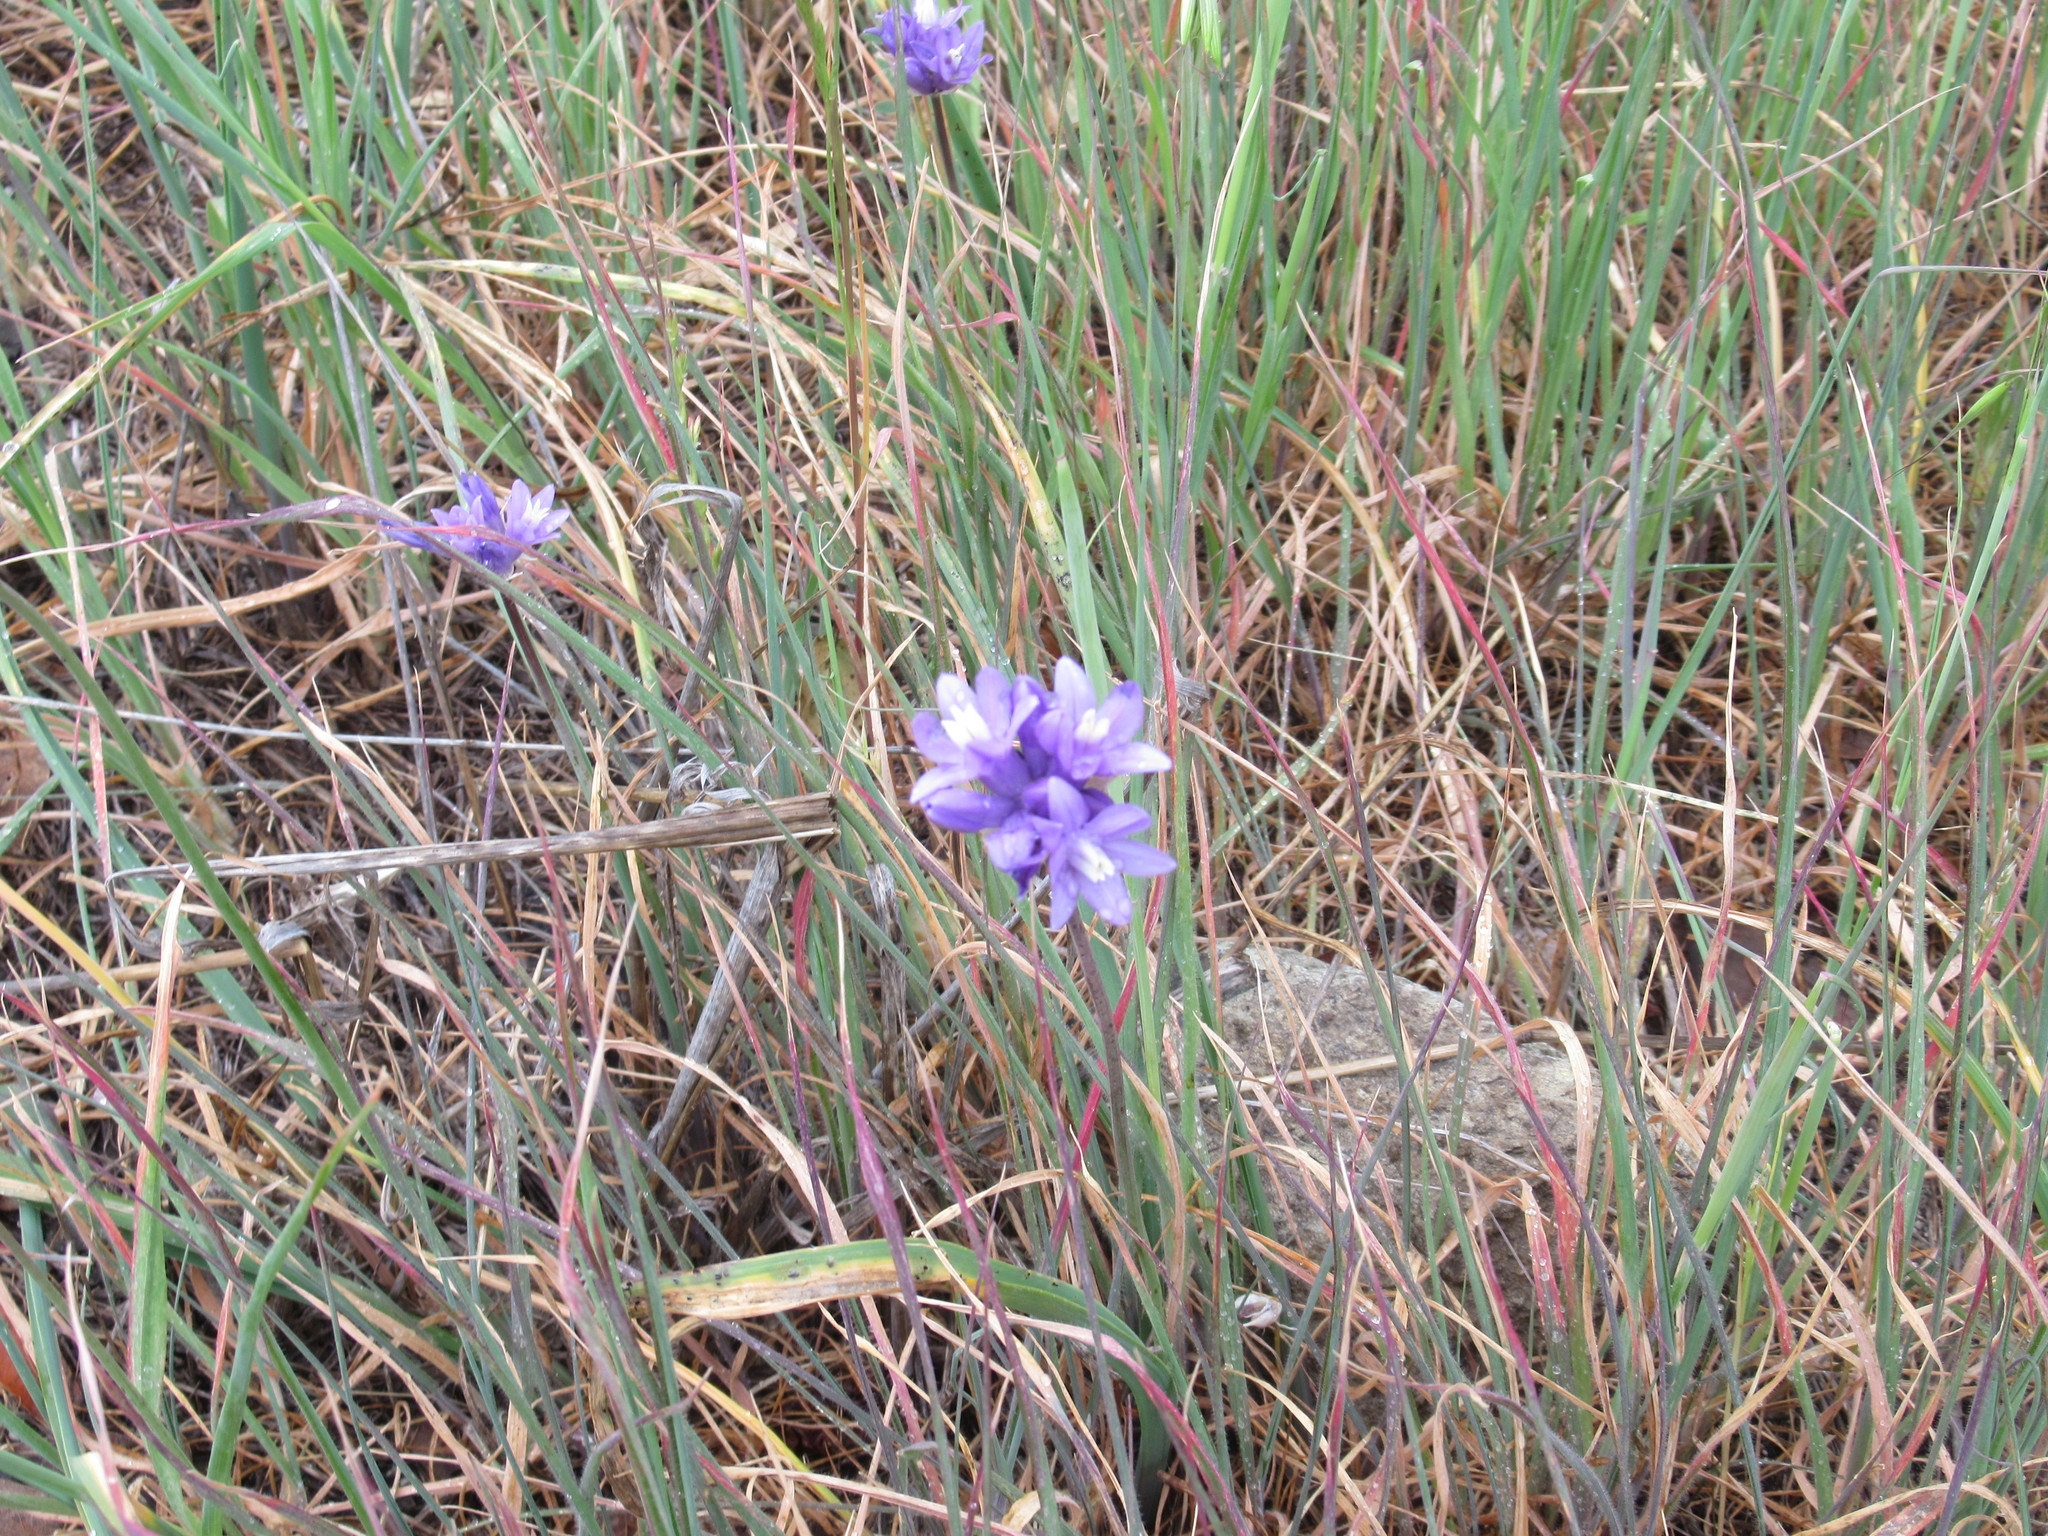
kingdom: Plantae
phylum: Tracheophyta
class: Liliopsida
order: Asparagales
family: Asparagaceae
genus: Dipterostemon
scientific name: Dipterostemon capitatus
